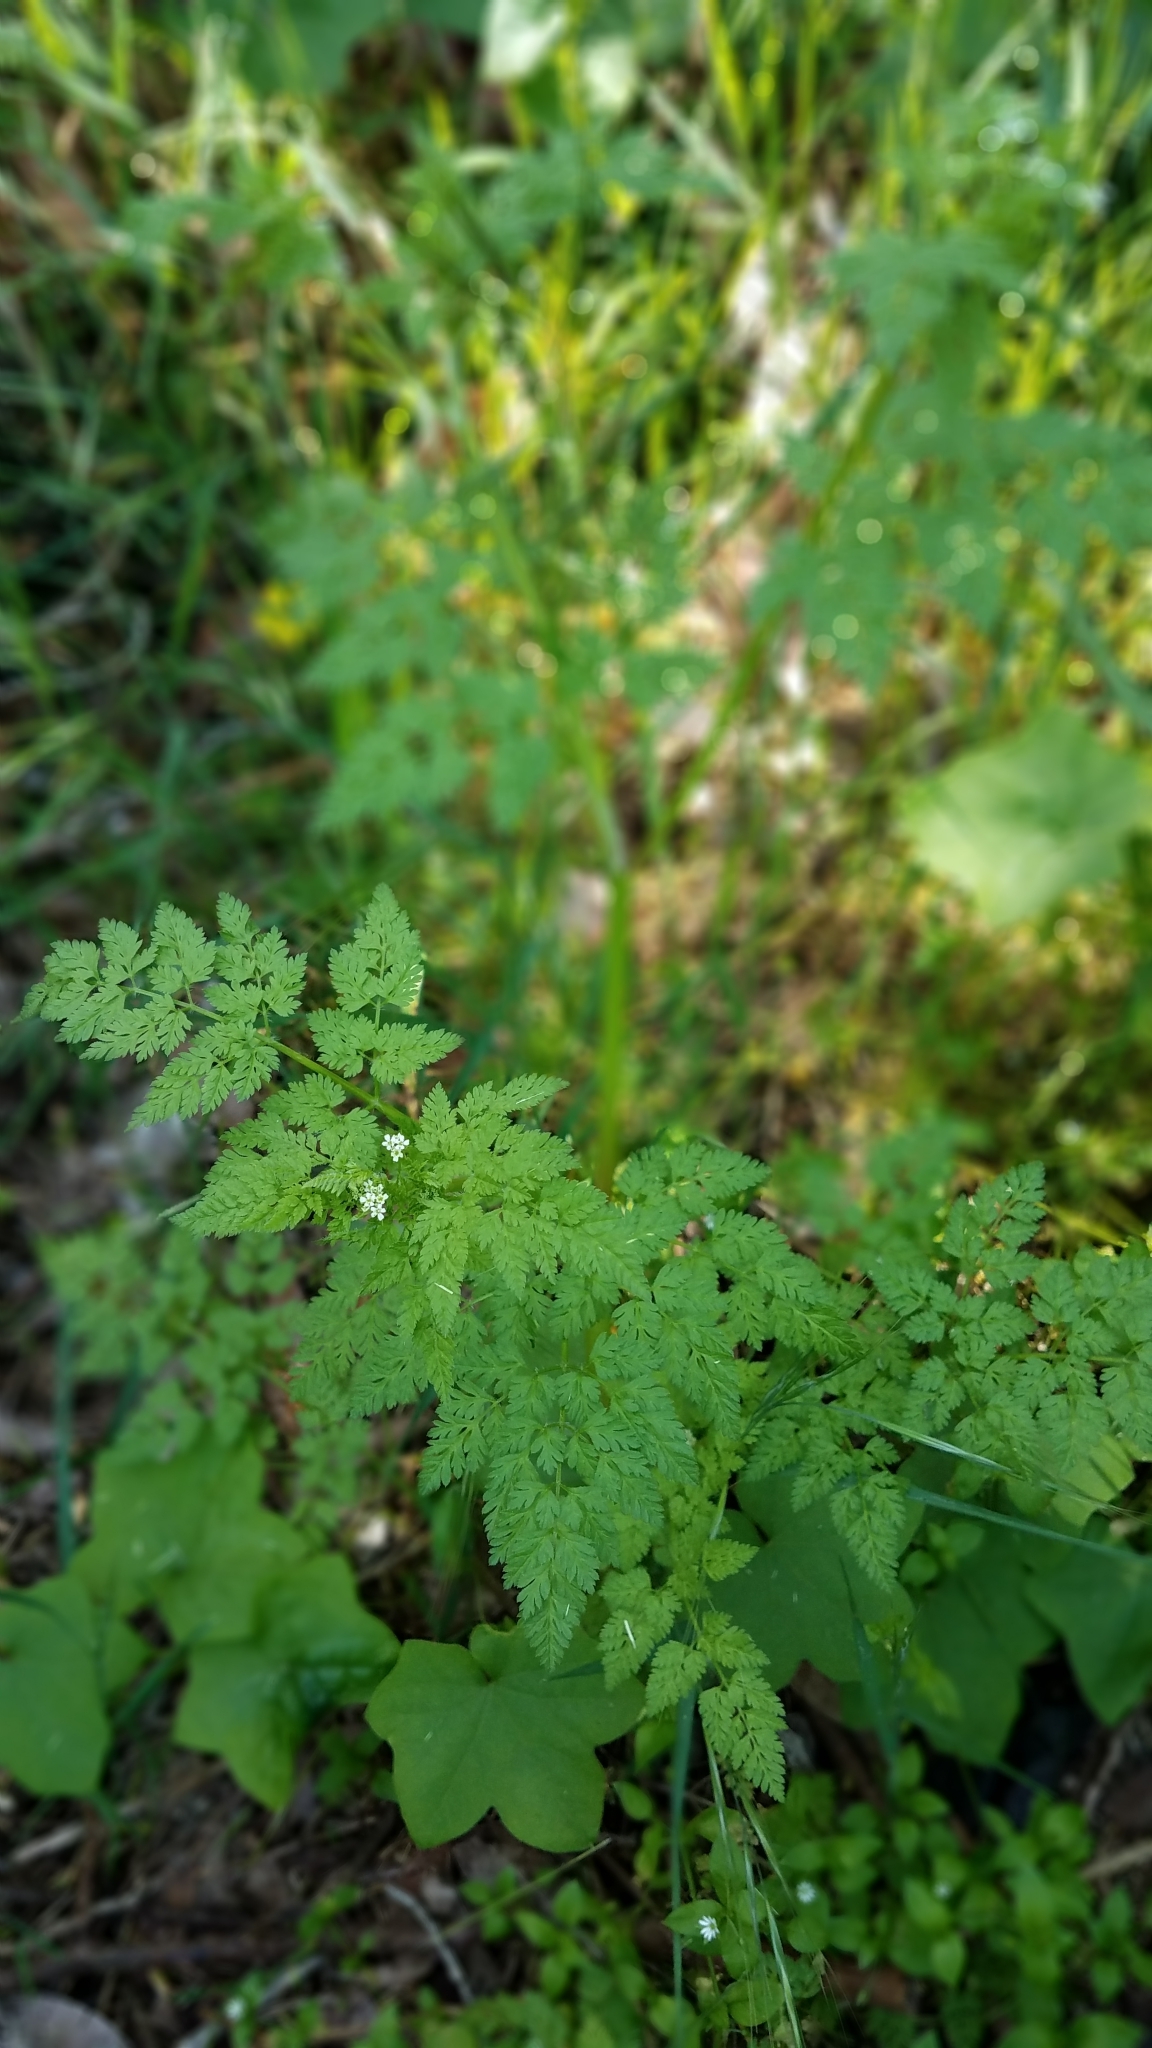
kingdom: Plantae
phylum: Tracheophyta
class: Magnoliopsida
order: Apiales
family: Apiaceae
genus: Conium
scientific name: Conium maculatum
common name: Hemlock
